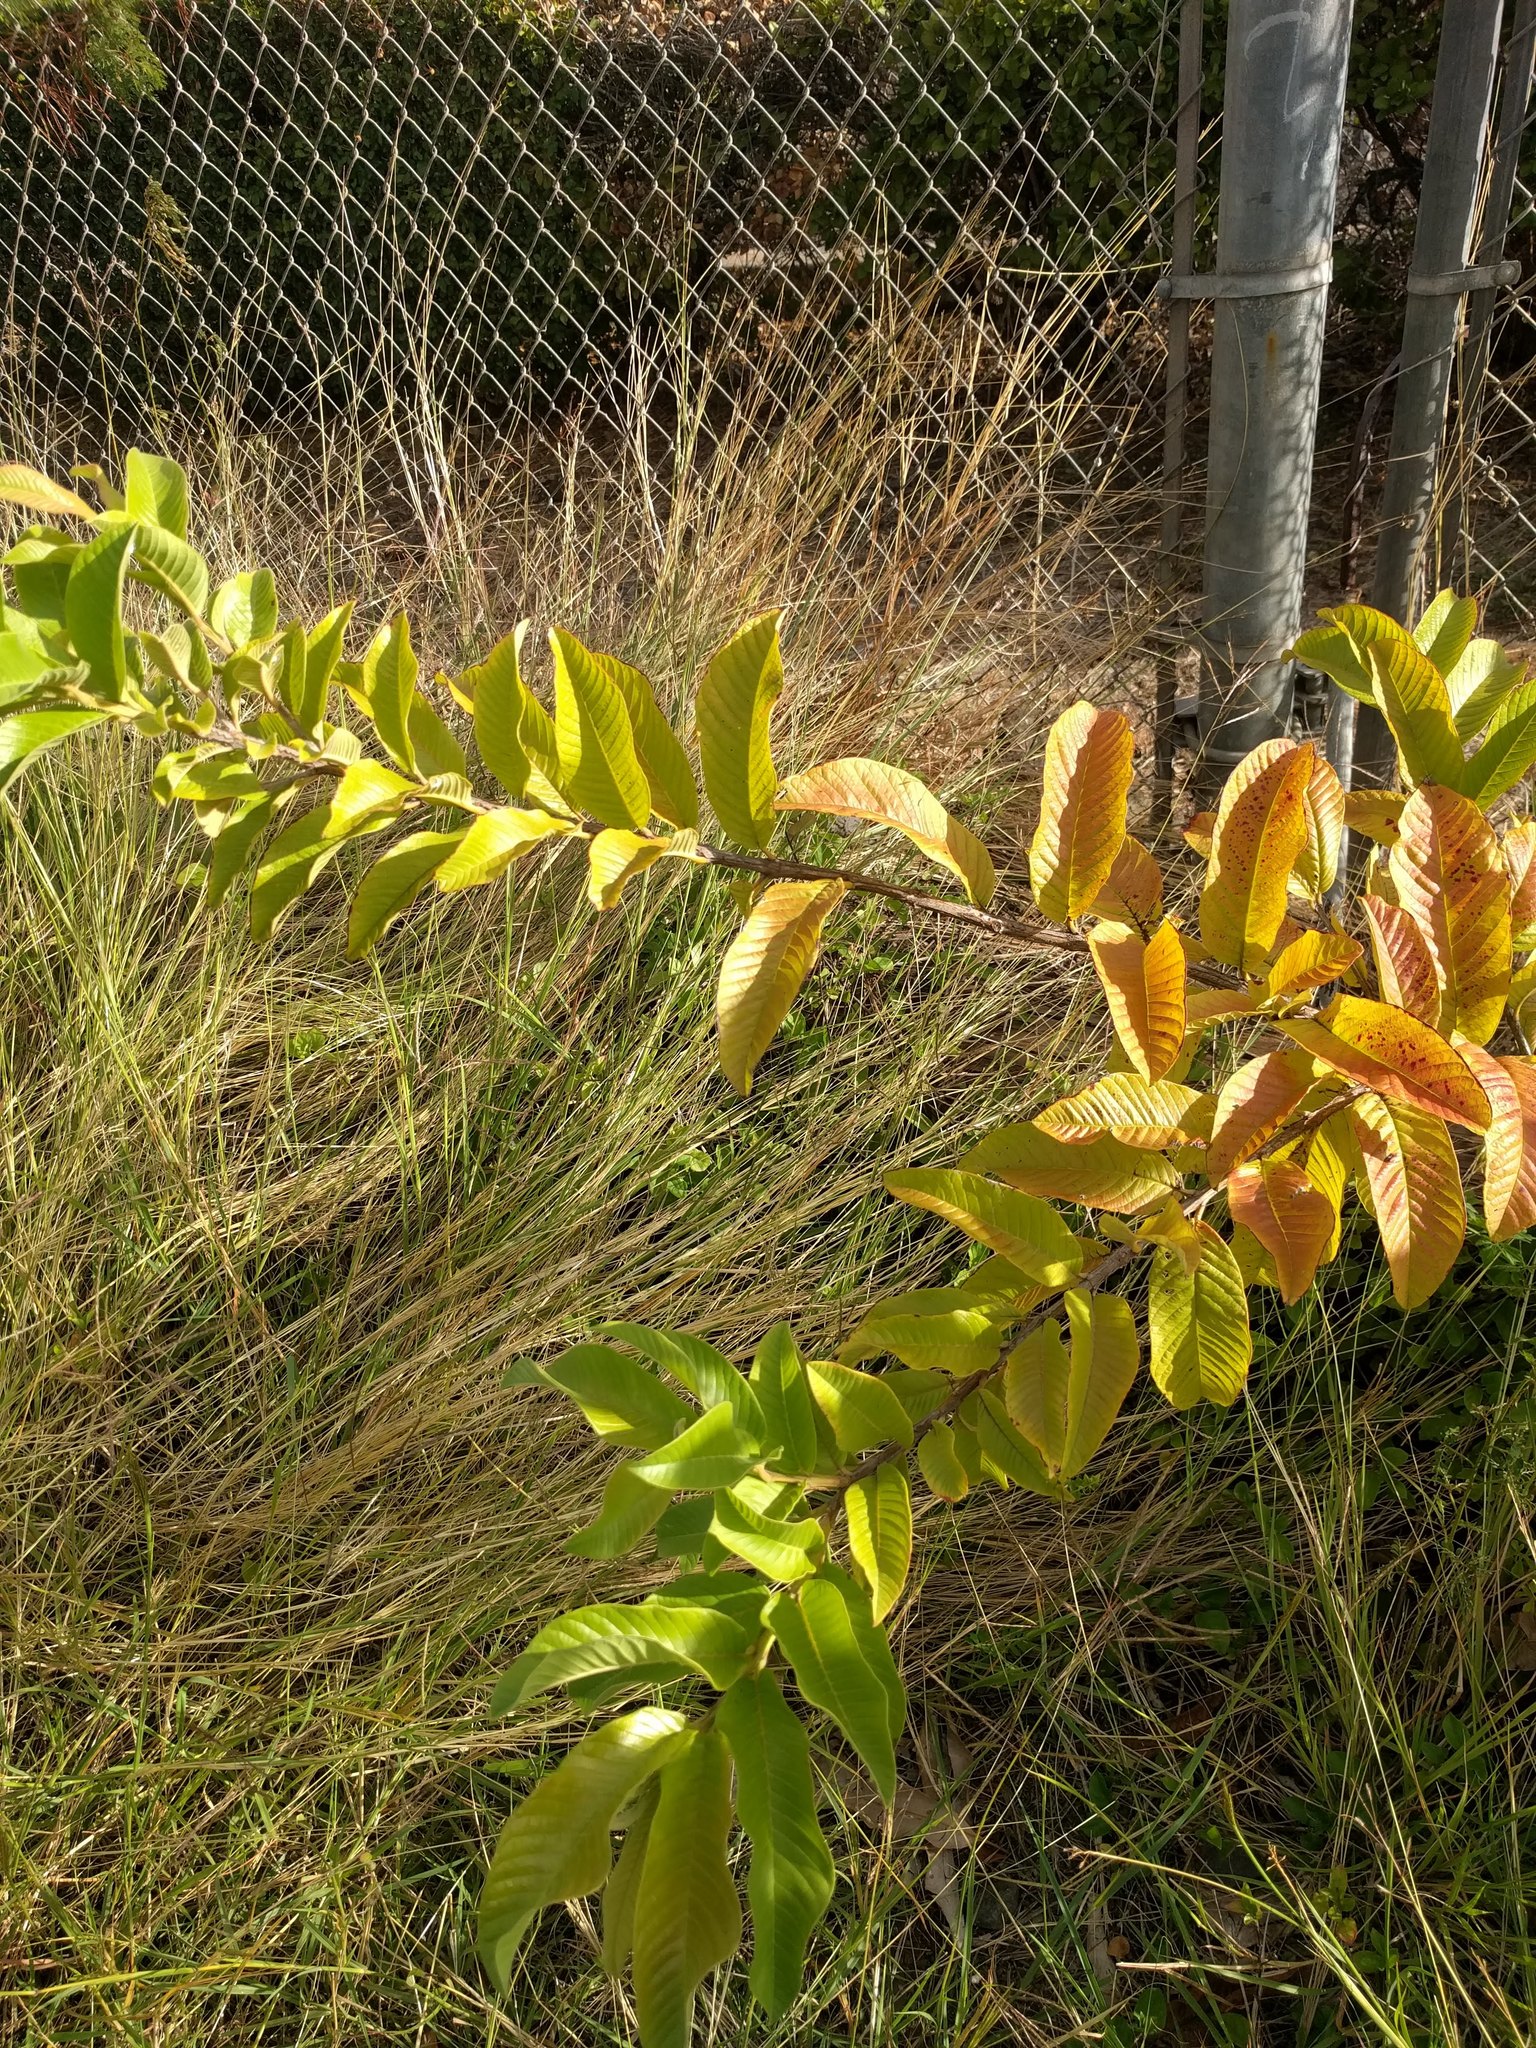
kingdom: Plantae
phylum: Tracheophyta
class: Magnoliopsida
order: Myrtales
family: Myrtaceae
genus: Psidium
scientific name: Psidium guajava
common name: Guava
